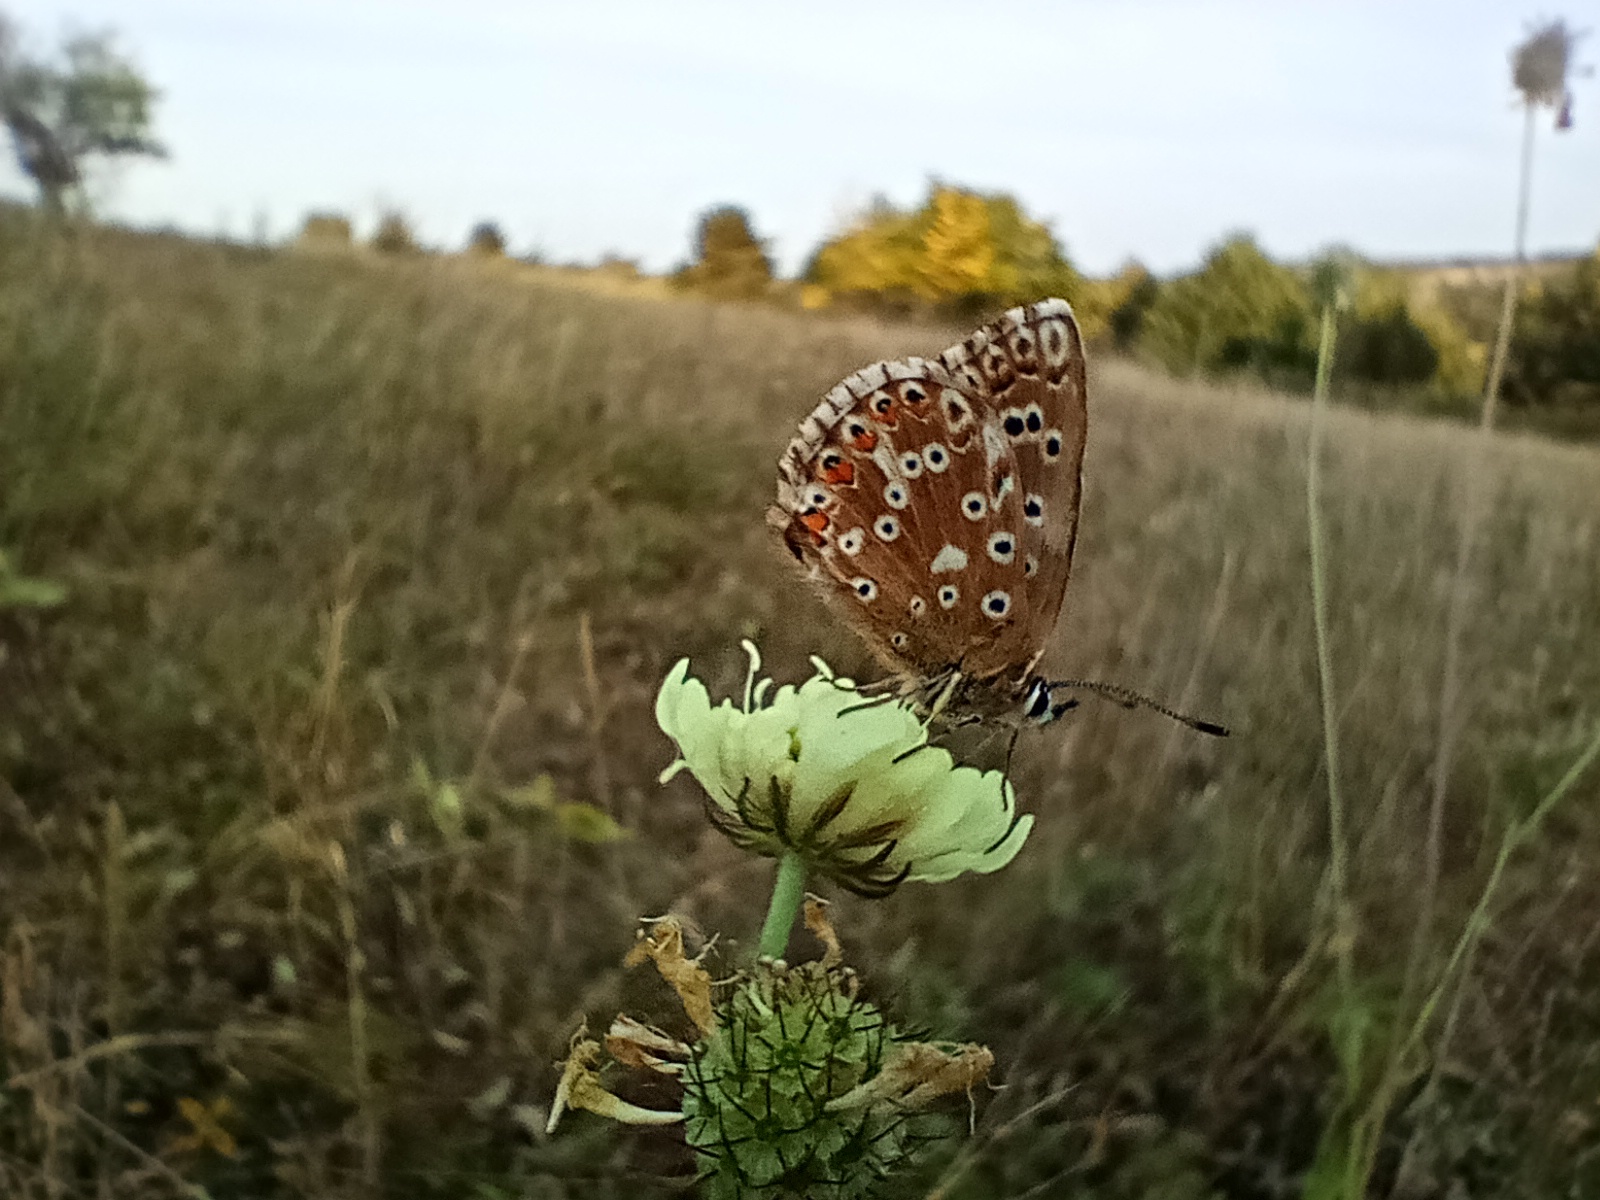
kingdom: Animalia
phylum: Arthropoda
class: Insecta
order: Lepidoptera
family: Lycaenidae
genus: Lysandra
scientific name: Lysandra coridon
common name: Chalkhill blue
